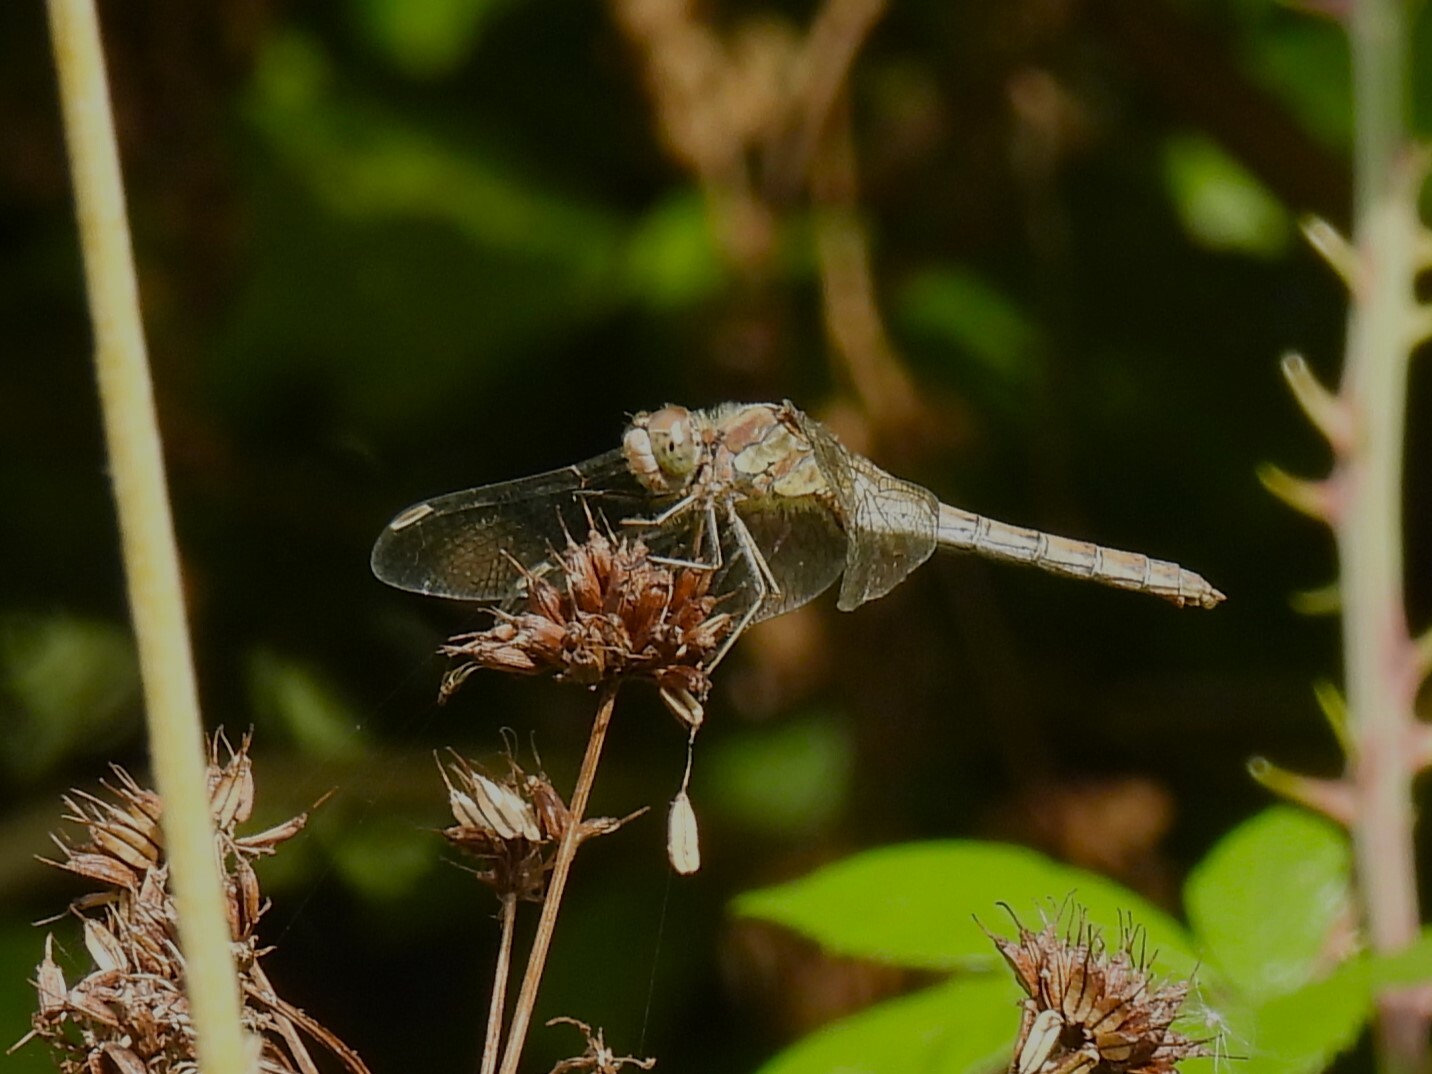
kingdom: Animalia
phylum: Arthropoda
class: Insecta
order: Odonata
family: Libellulidae
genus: Sympetrum
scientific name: Sympetrum striolatum
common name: Common darter
